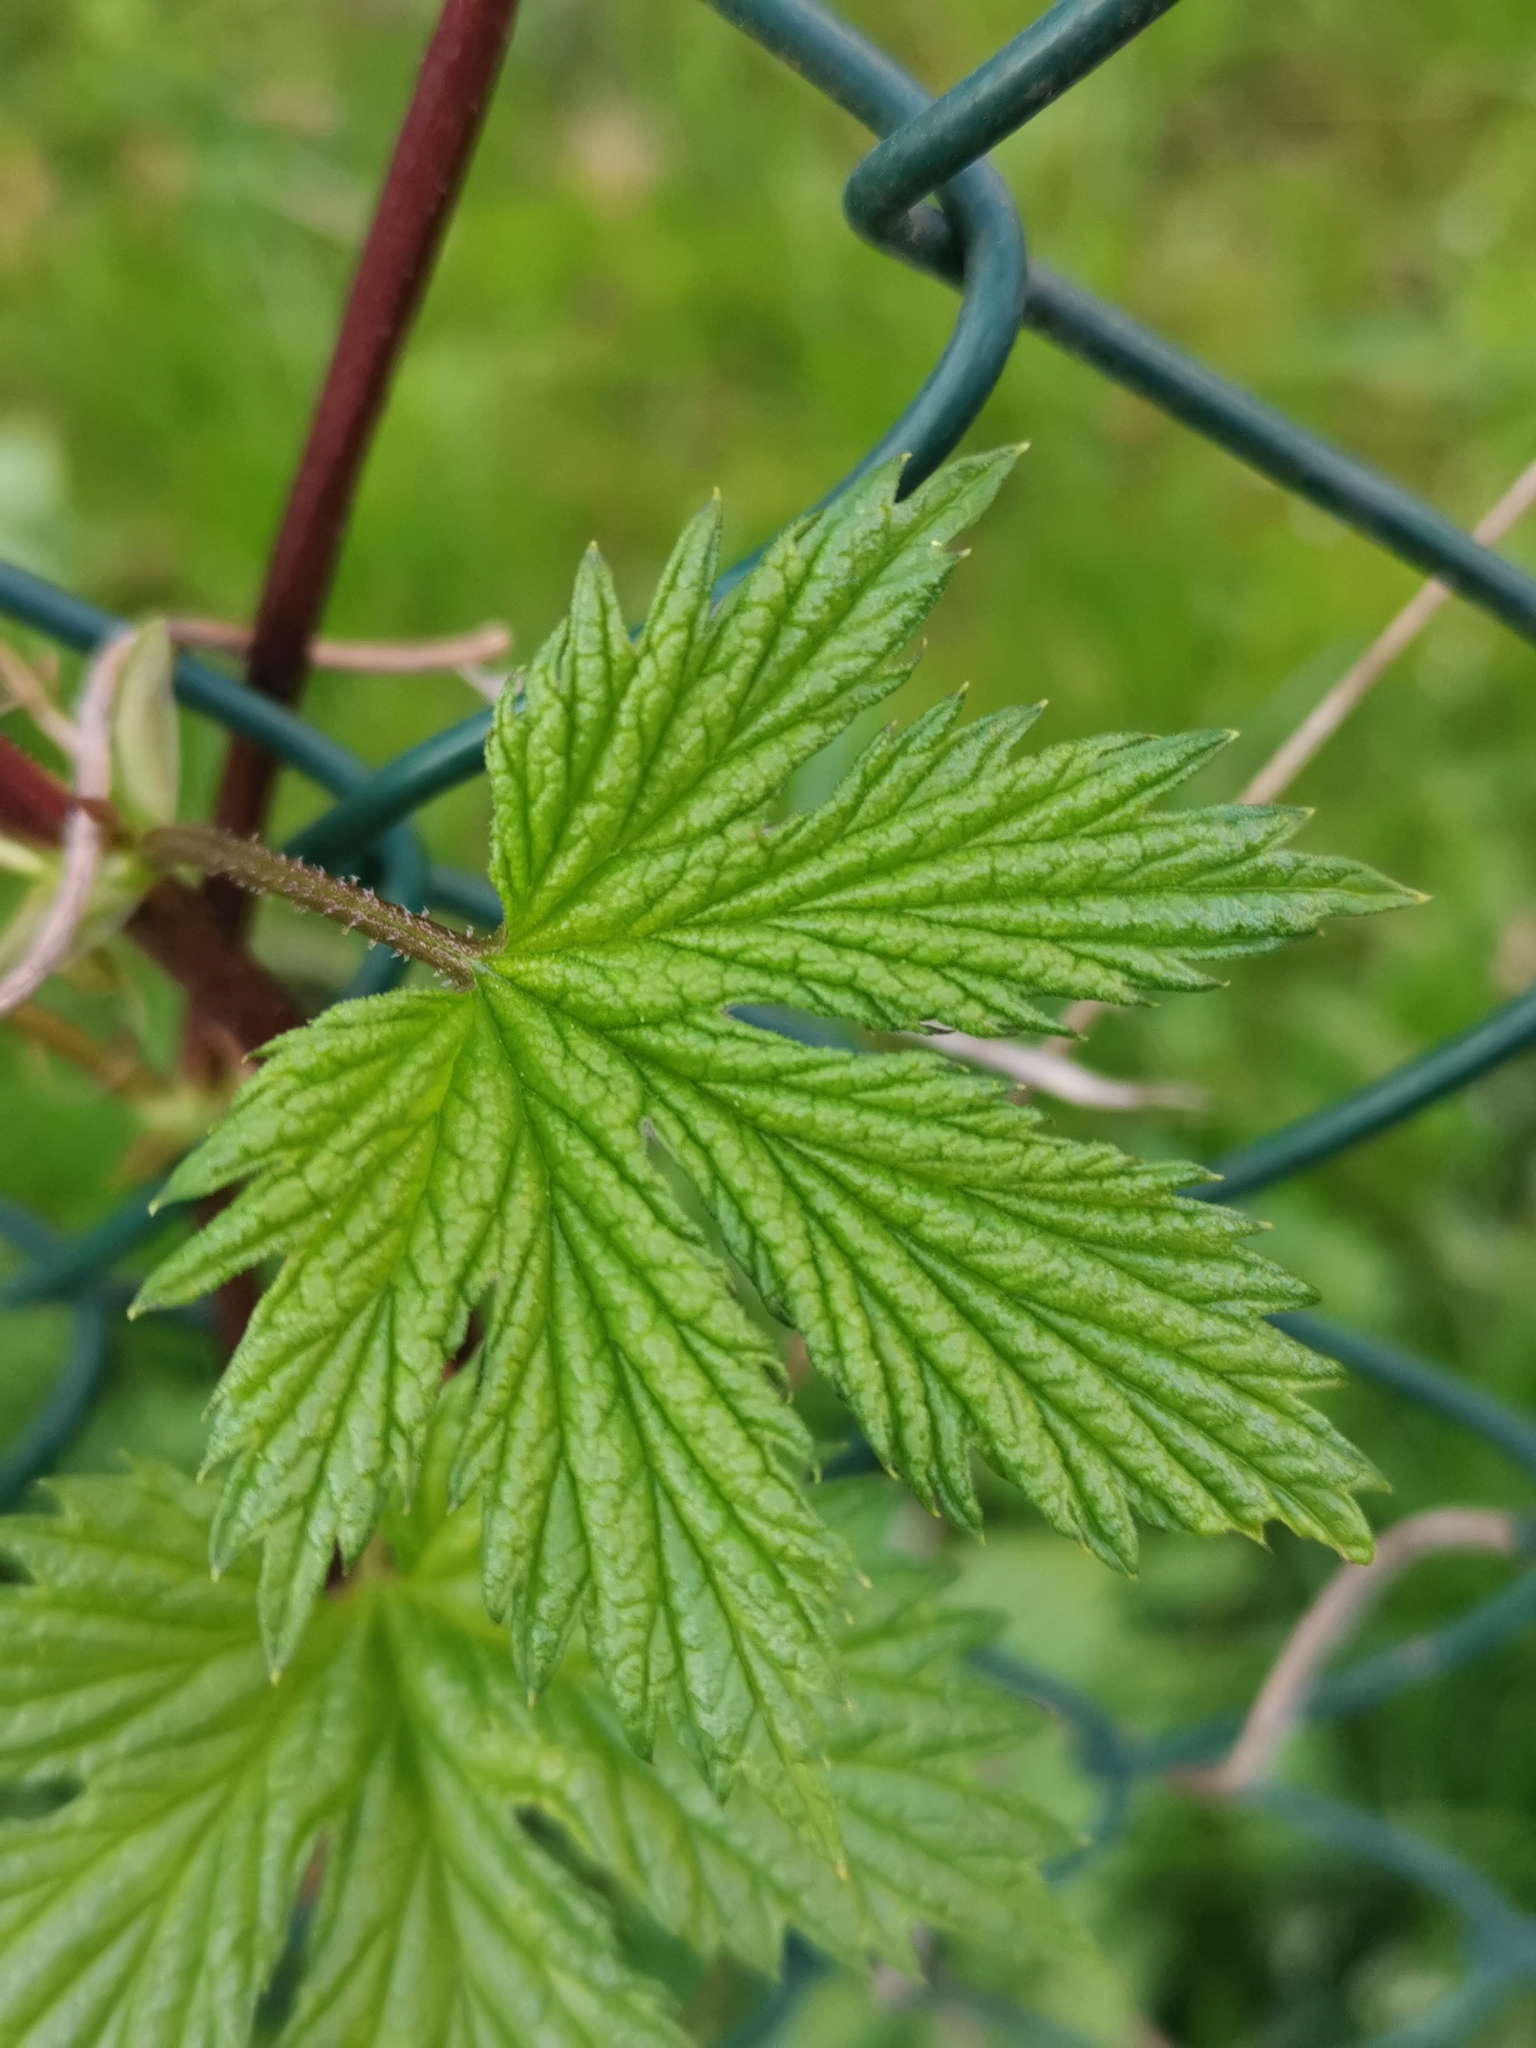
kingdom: Plantae
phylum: Tracheophyta
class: Magnoliopsida
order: Rosales
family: Cannabaceae
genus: Humulus
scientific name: Humulus lupulus
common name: Hop
